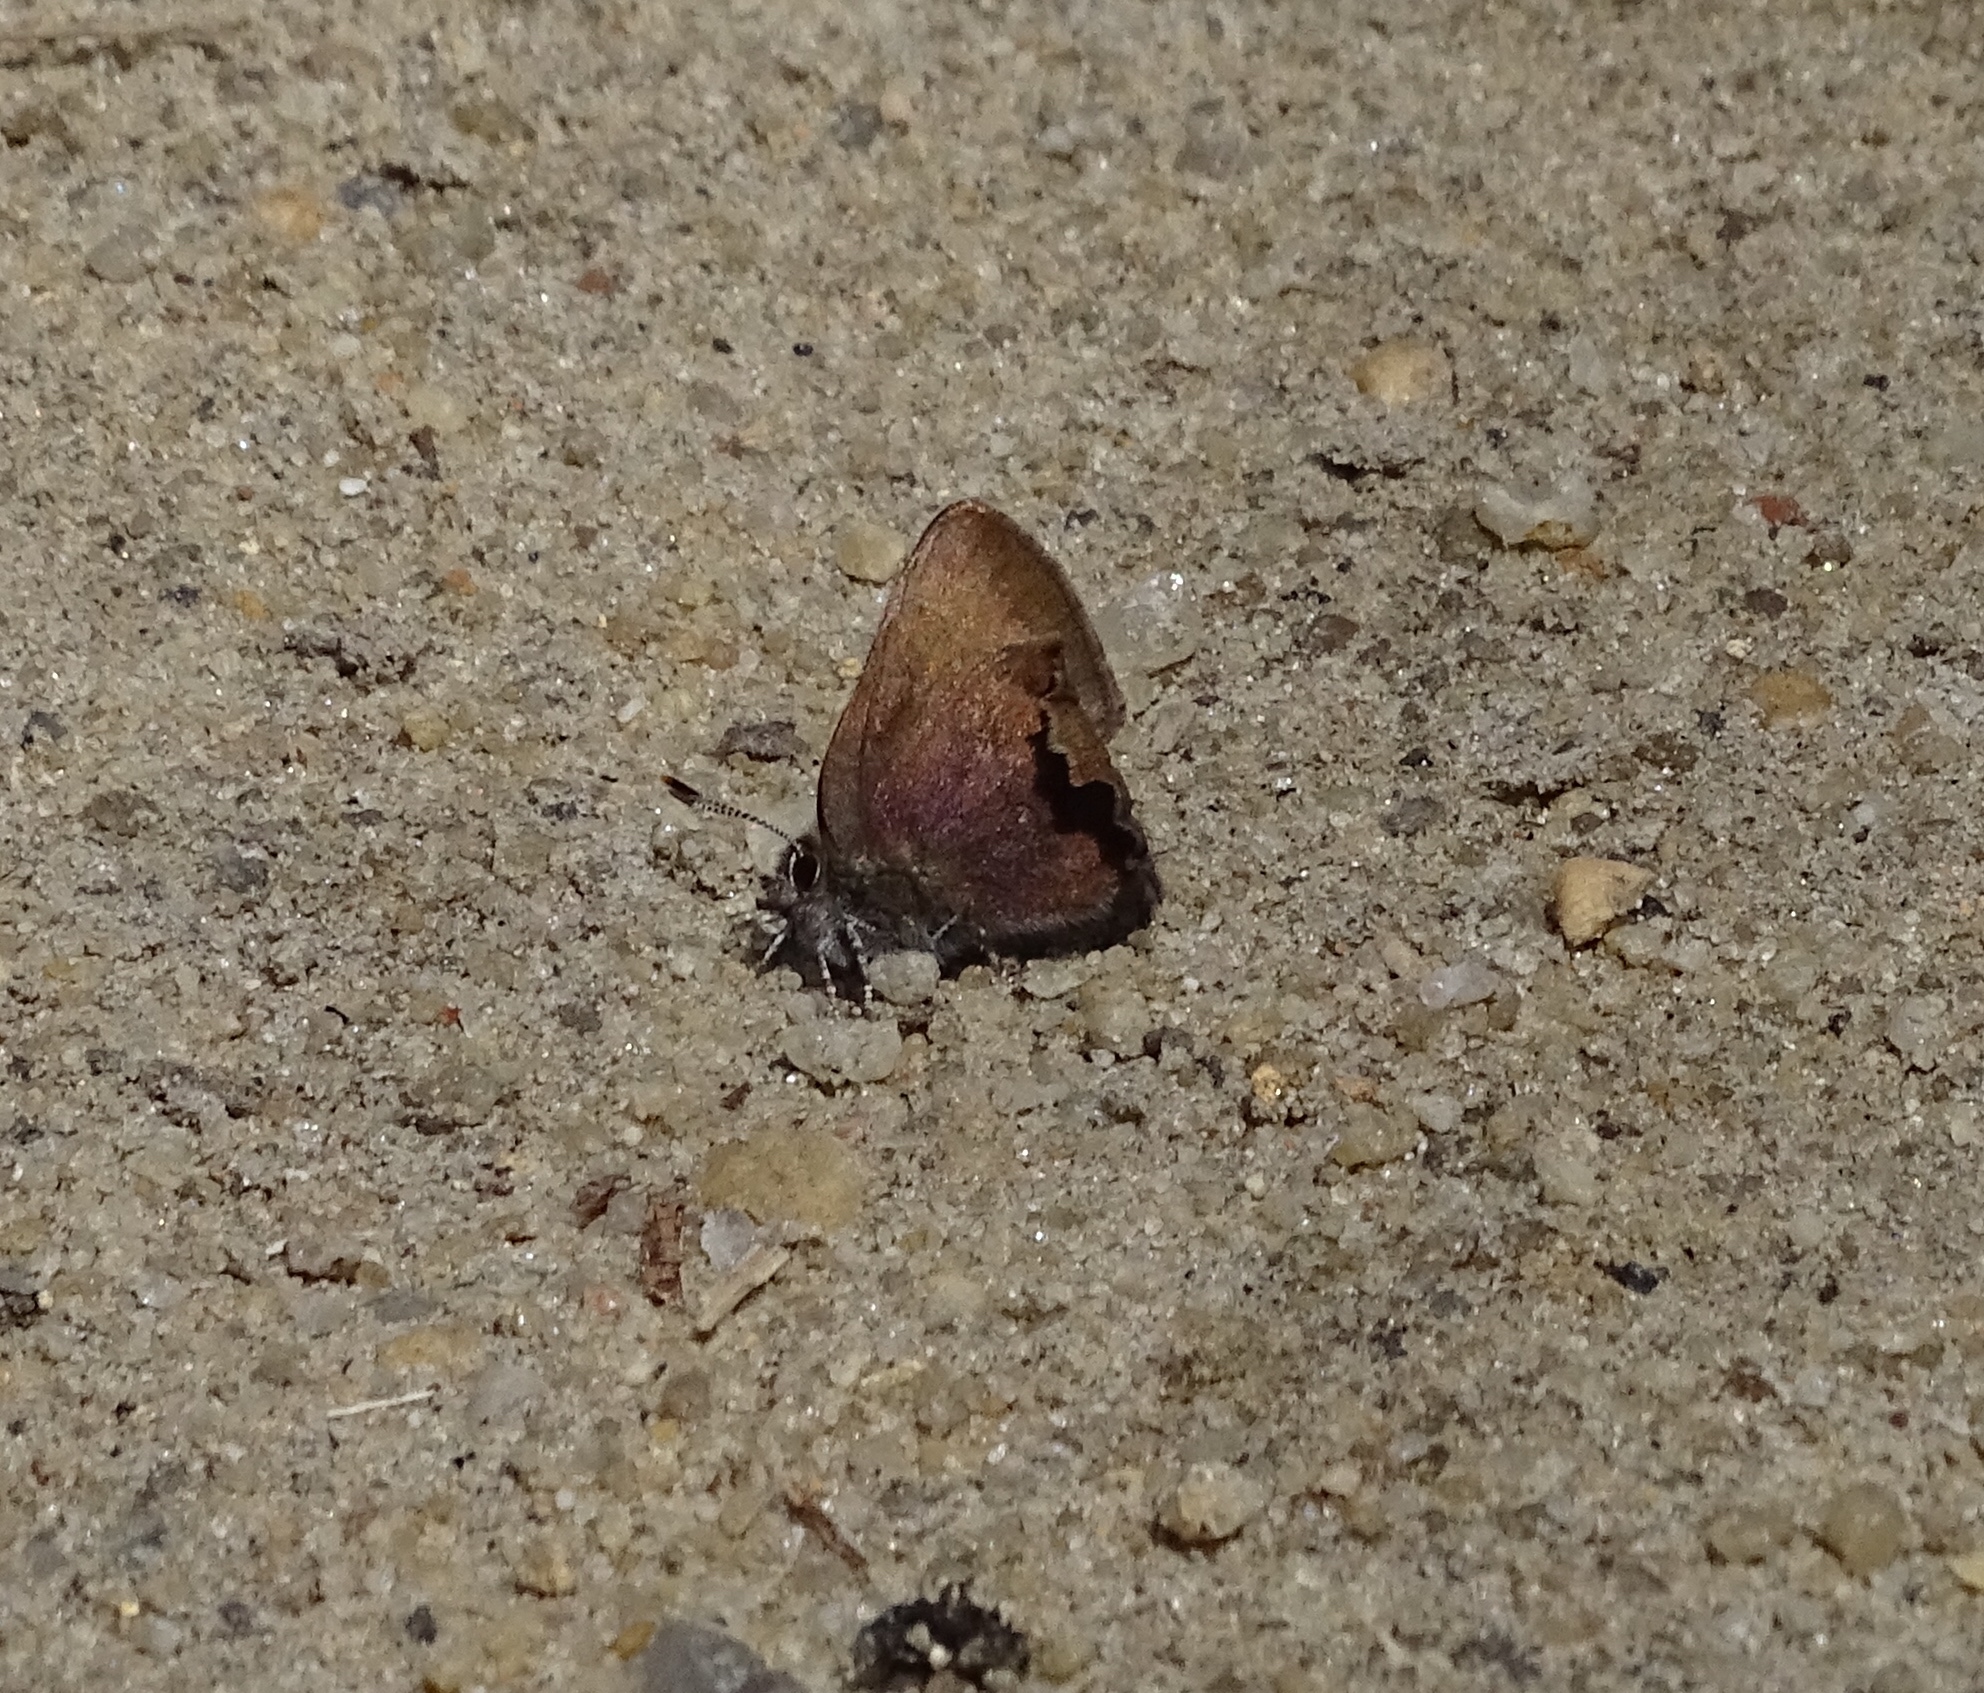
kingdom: Animalia
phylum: Arthropoda
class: Insecta
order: Lepidoptera
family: Lycaenidae
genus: Incisalia
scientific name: Incisalia irioides
